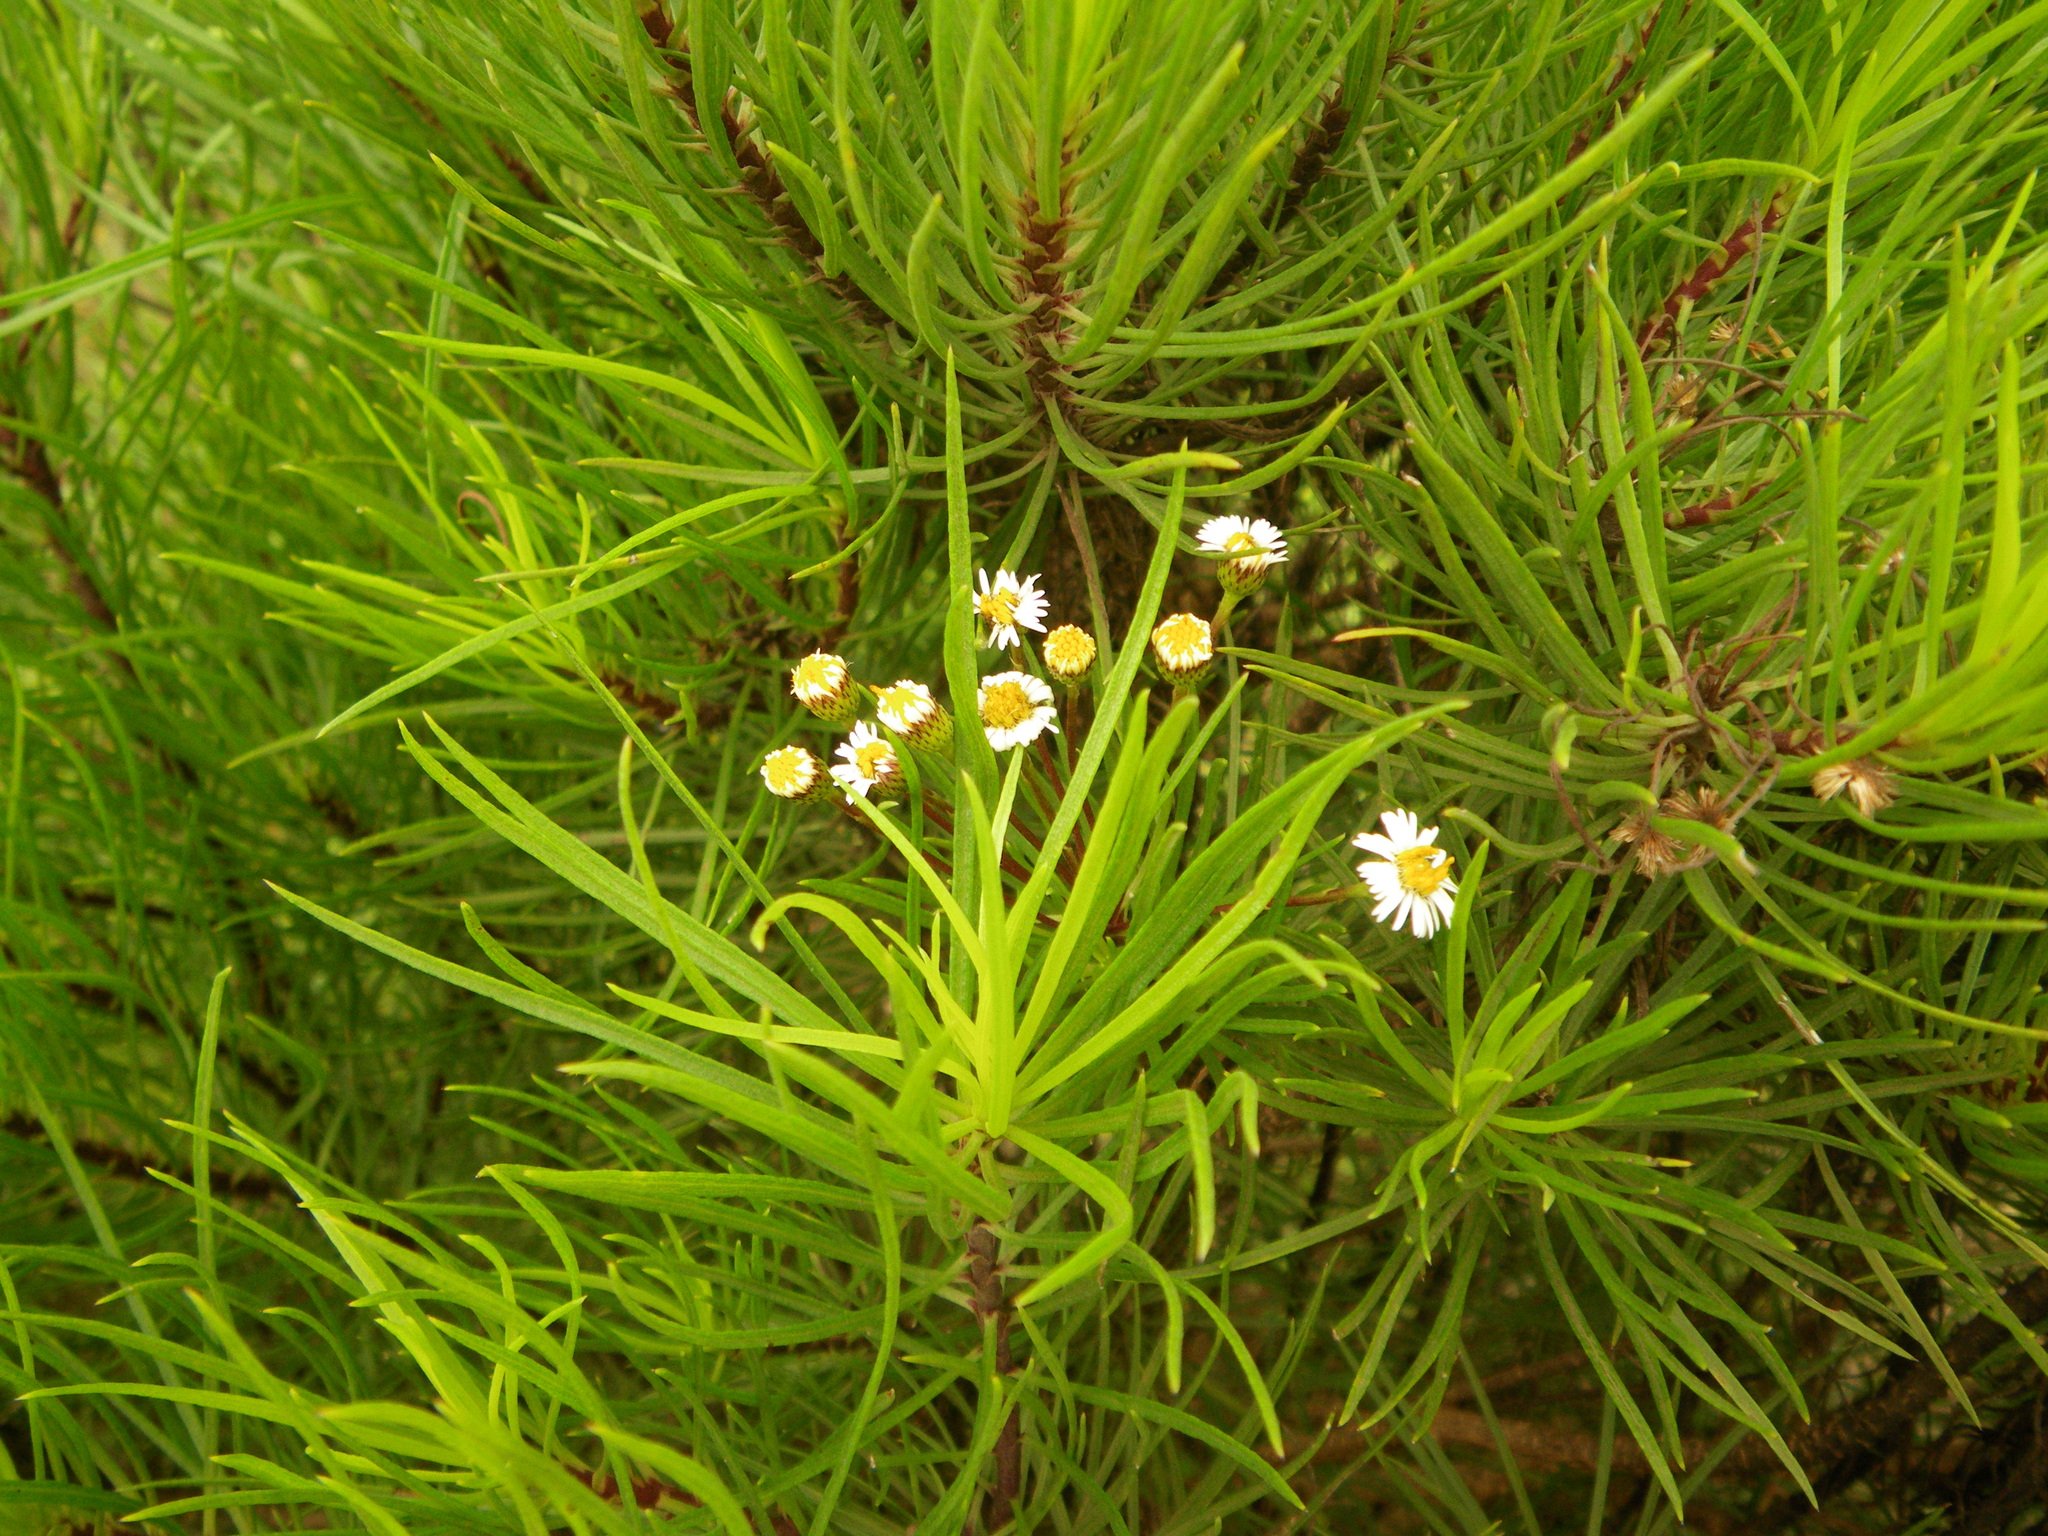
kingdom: Plantae
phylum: Tracheophyta
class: Magnoliopsida
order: Asterales
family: Asteraceae
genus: Erigeron
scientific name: Erigeron tenuifolius
